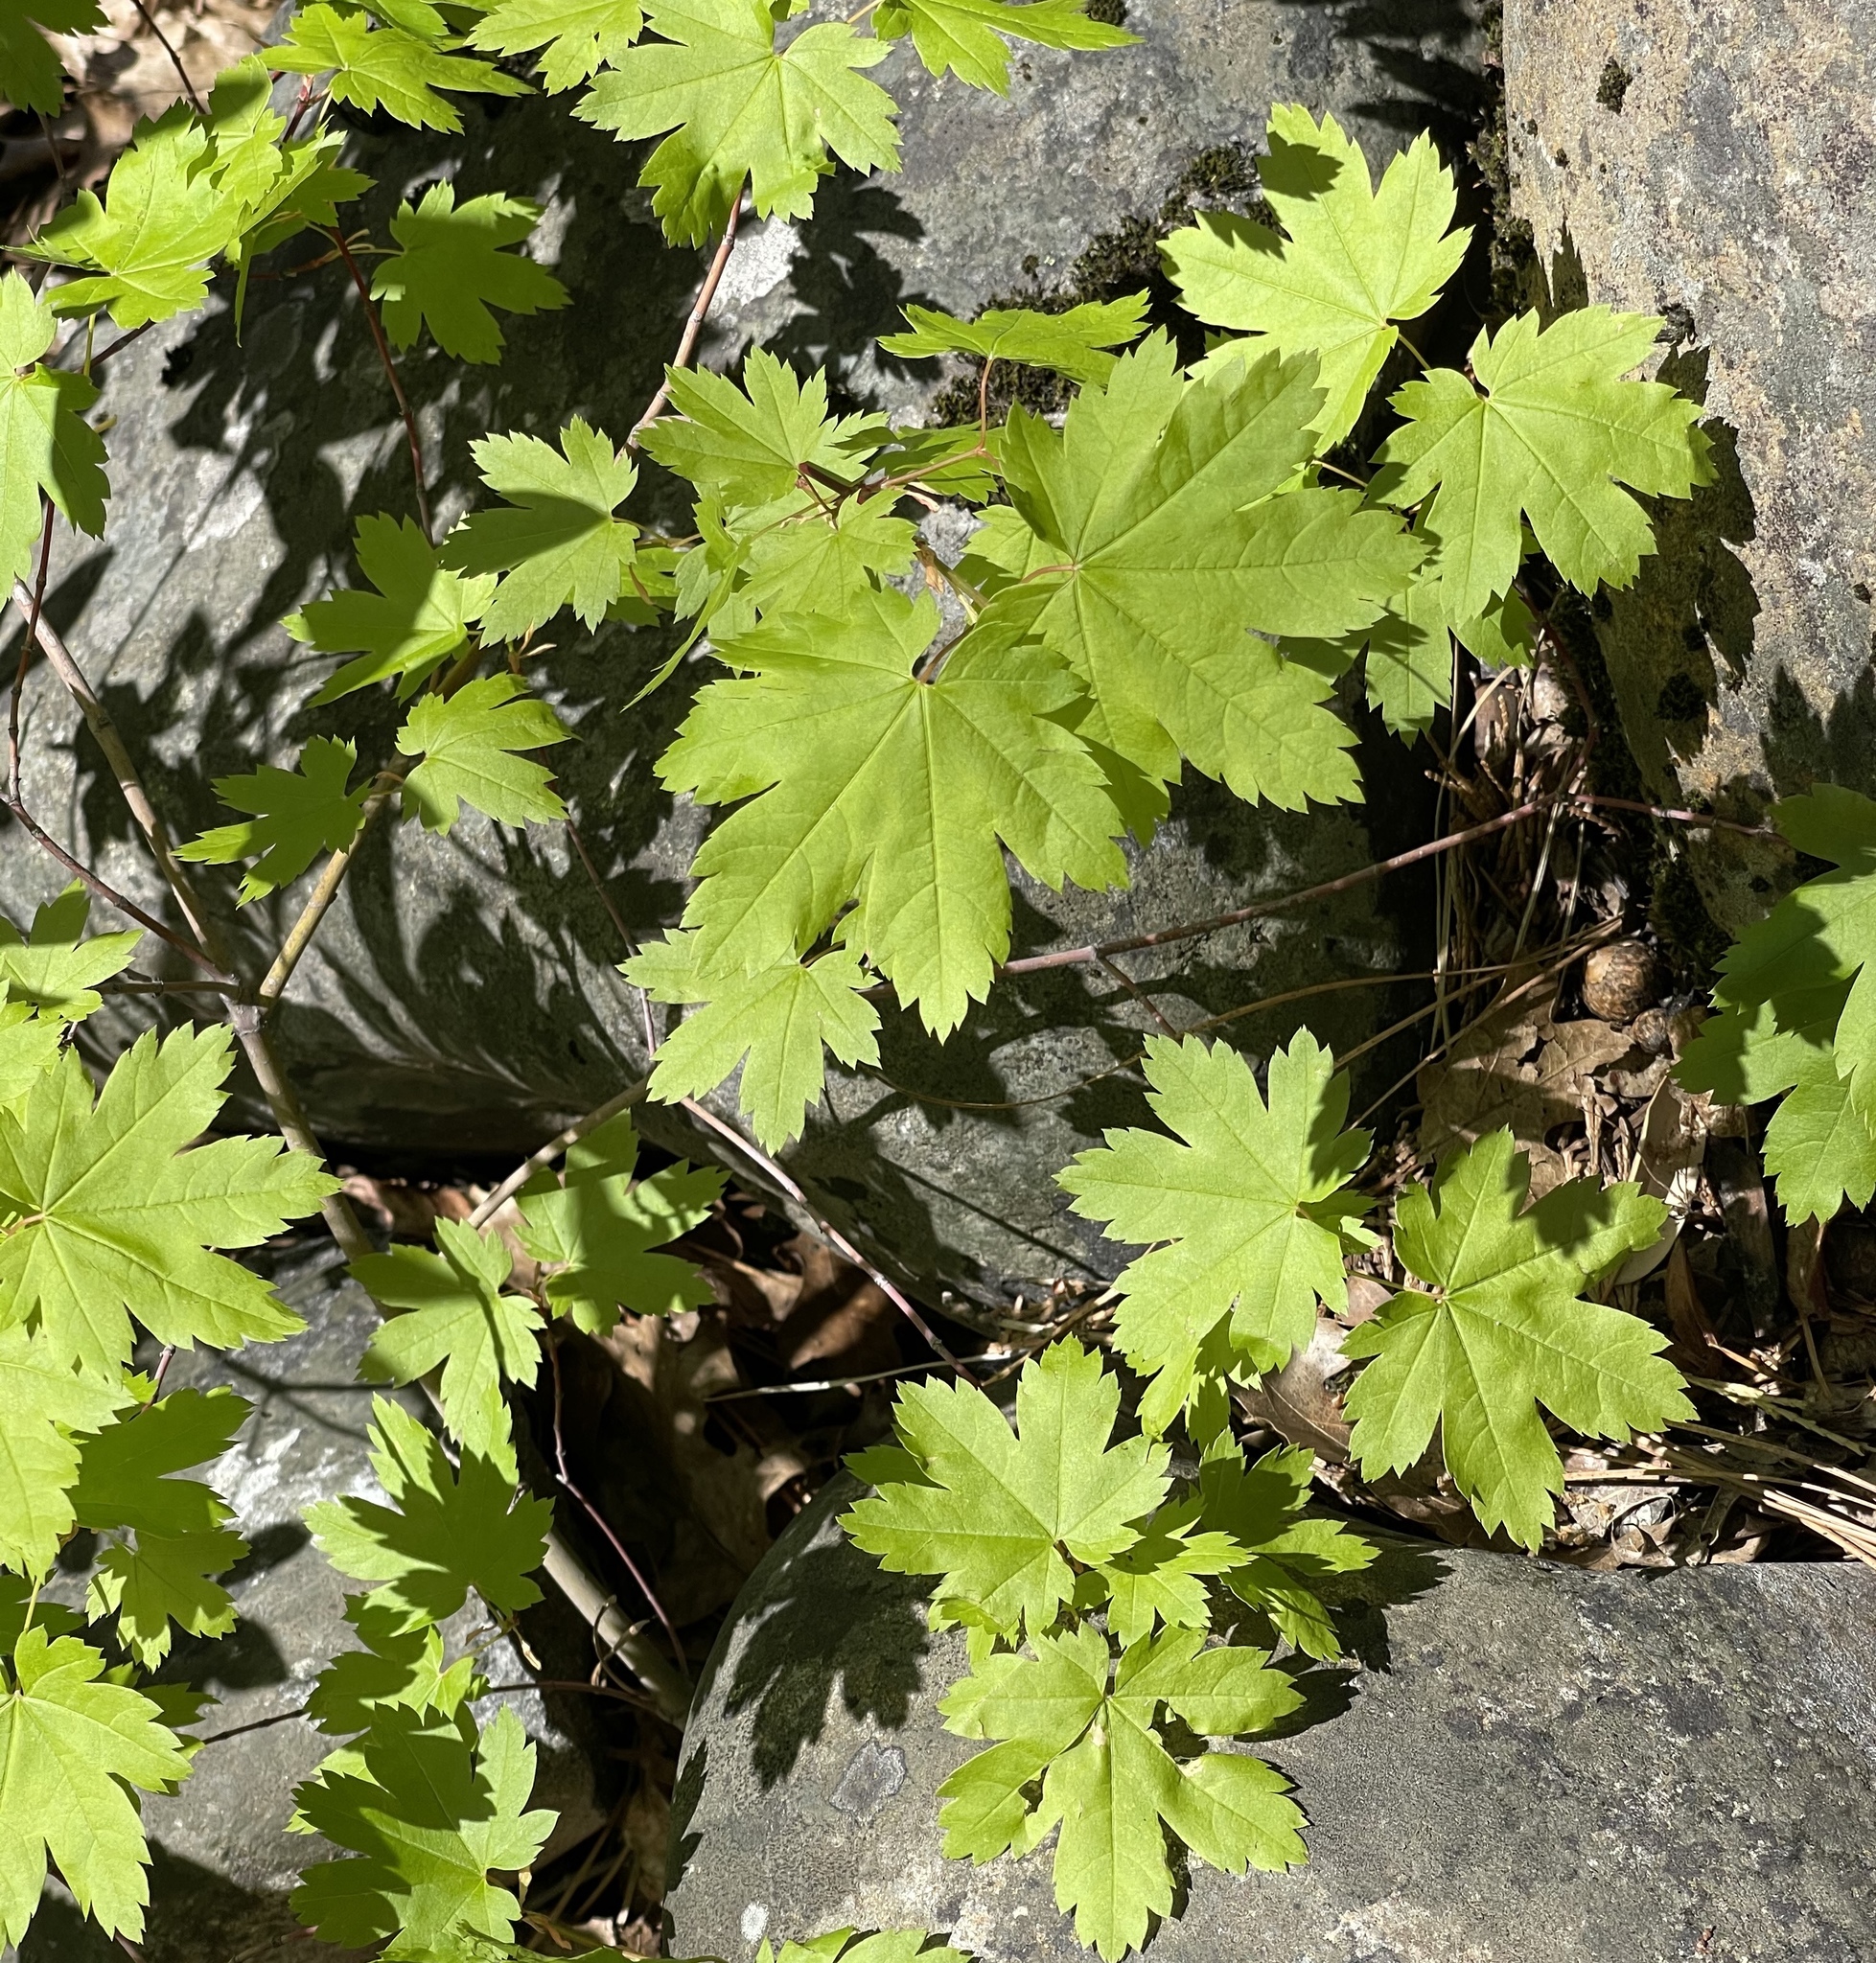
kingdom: Plantae
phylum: Tracheophyta
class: Magnoliopsida
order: Sapindales
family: Sapindaceae
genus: Acer
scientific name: Acer circinatum
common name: Vine maple
